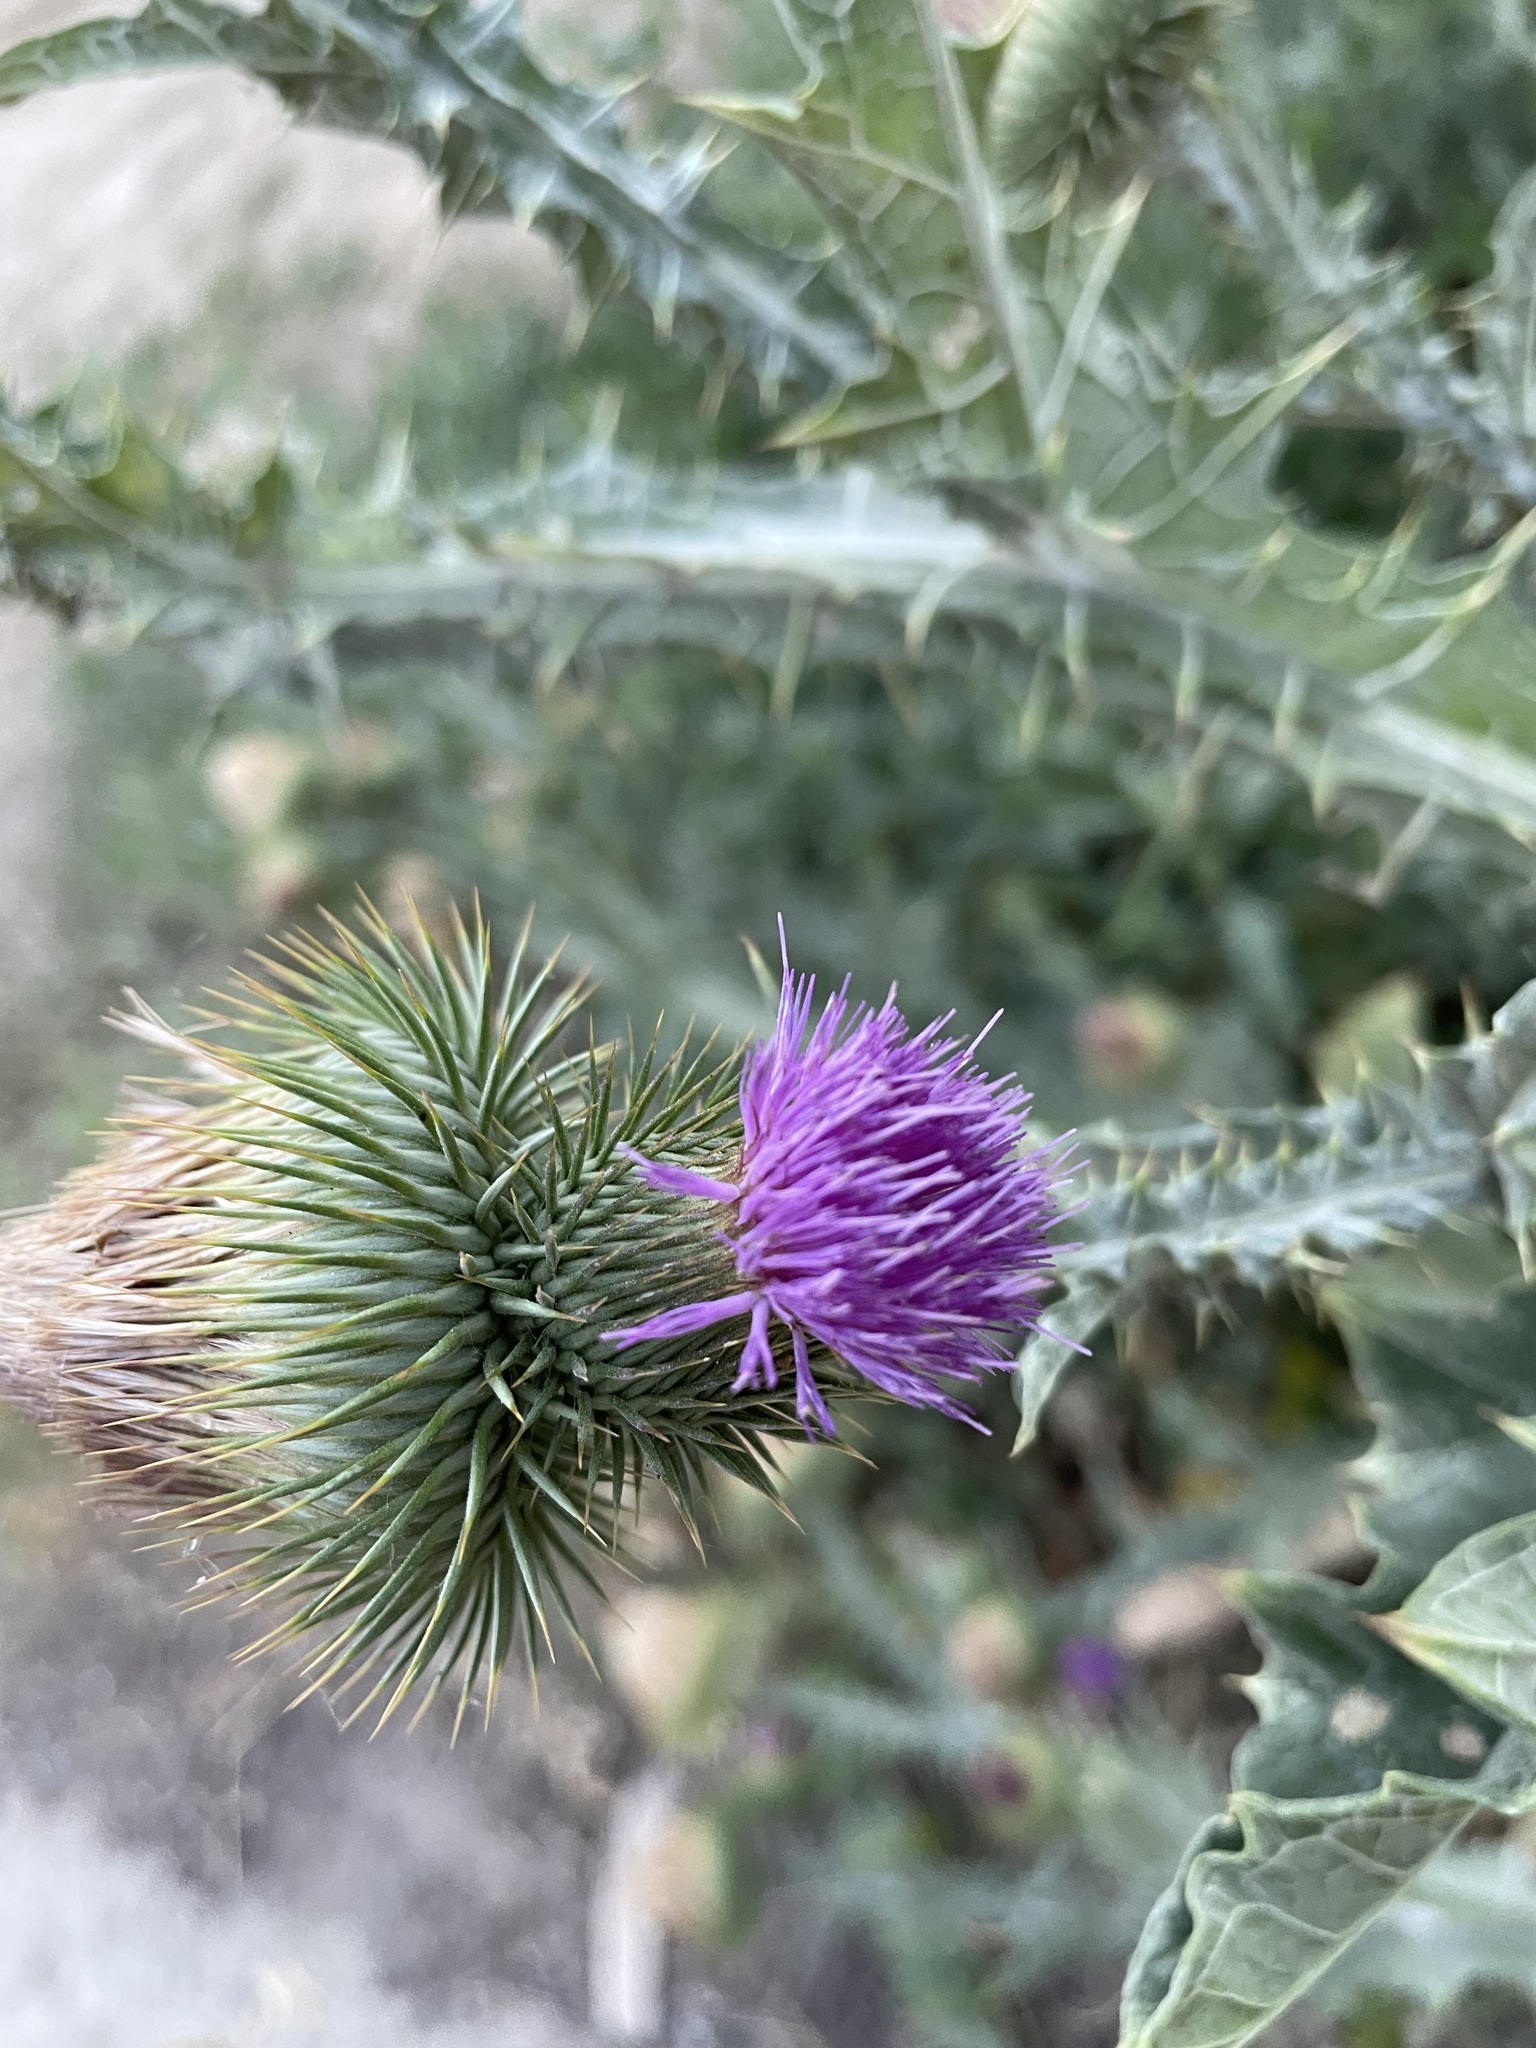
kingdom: Plantae
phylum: Tracheophyta
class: Magnoliopsida
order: Asterales
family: Asteraceae
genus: Onopordum
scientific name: Onopordum acanthium
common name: Scotch thistle
